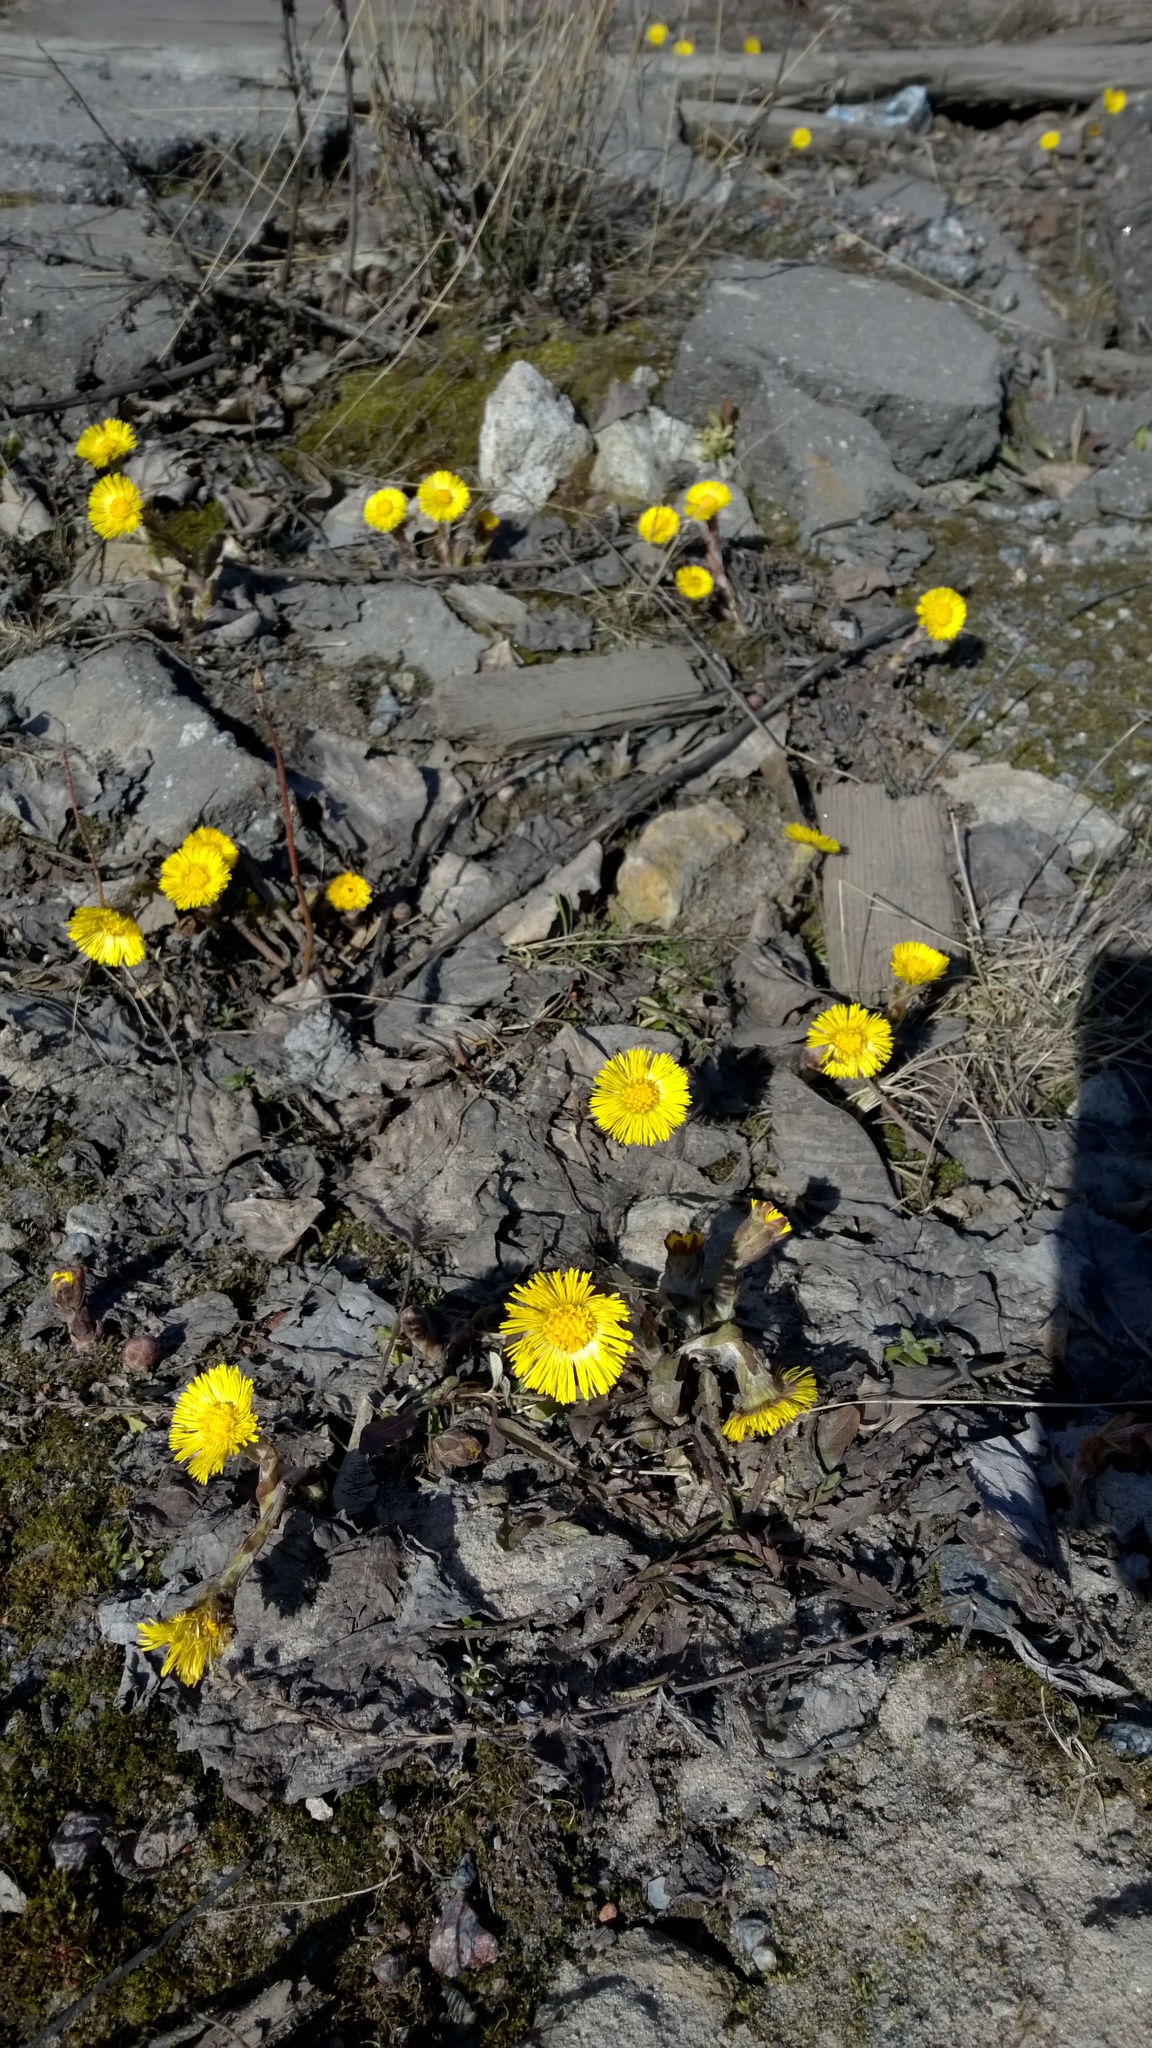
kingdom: Plantae
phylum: Tracheophyta
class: Magnoliopsida
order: Asterales
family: Asteraceae
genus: Tussilago
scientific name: Tussilago farfara
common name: Coltsfoot
